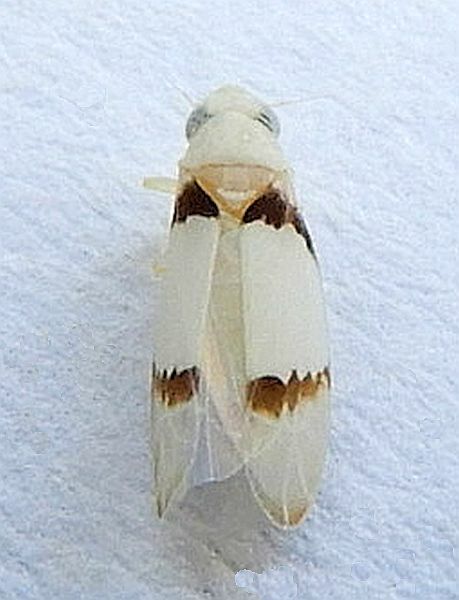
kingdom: Animalia
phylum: Arthropoda
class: Insecta
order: Hemiptera
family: Cicadellidae
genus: Ossiannilssonola
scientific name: Ossiannilssonola hinei
